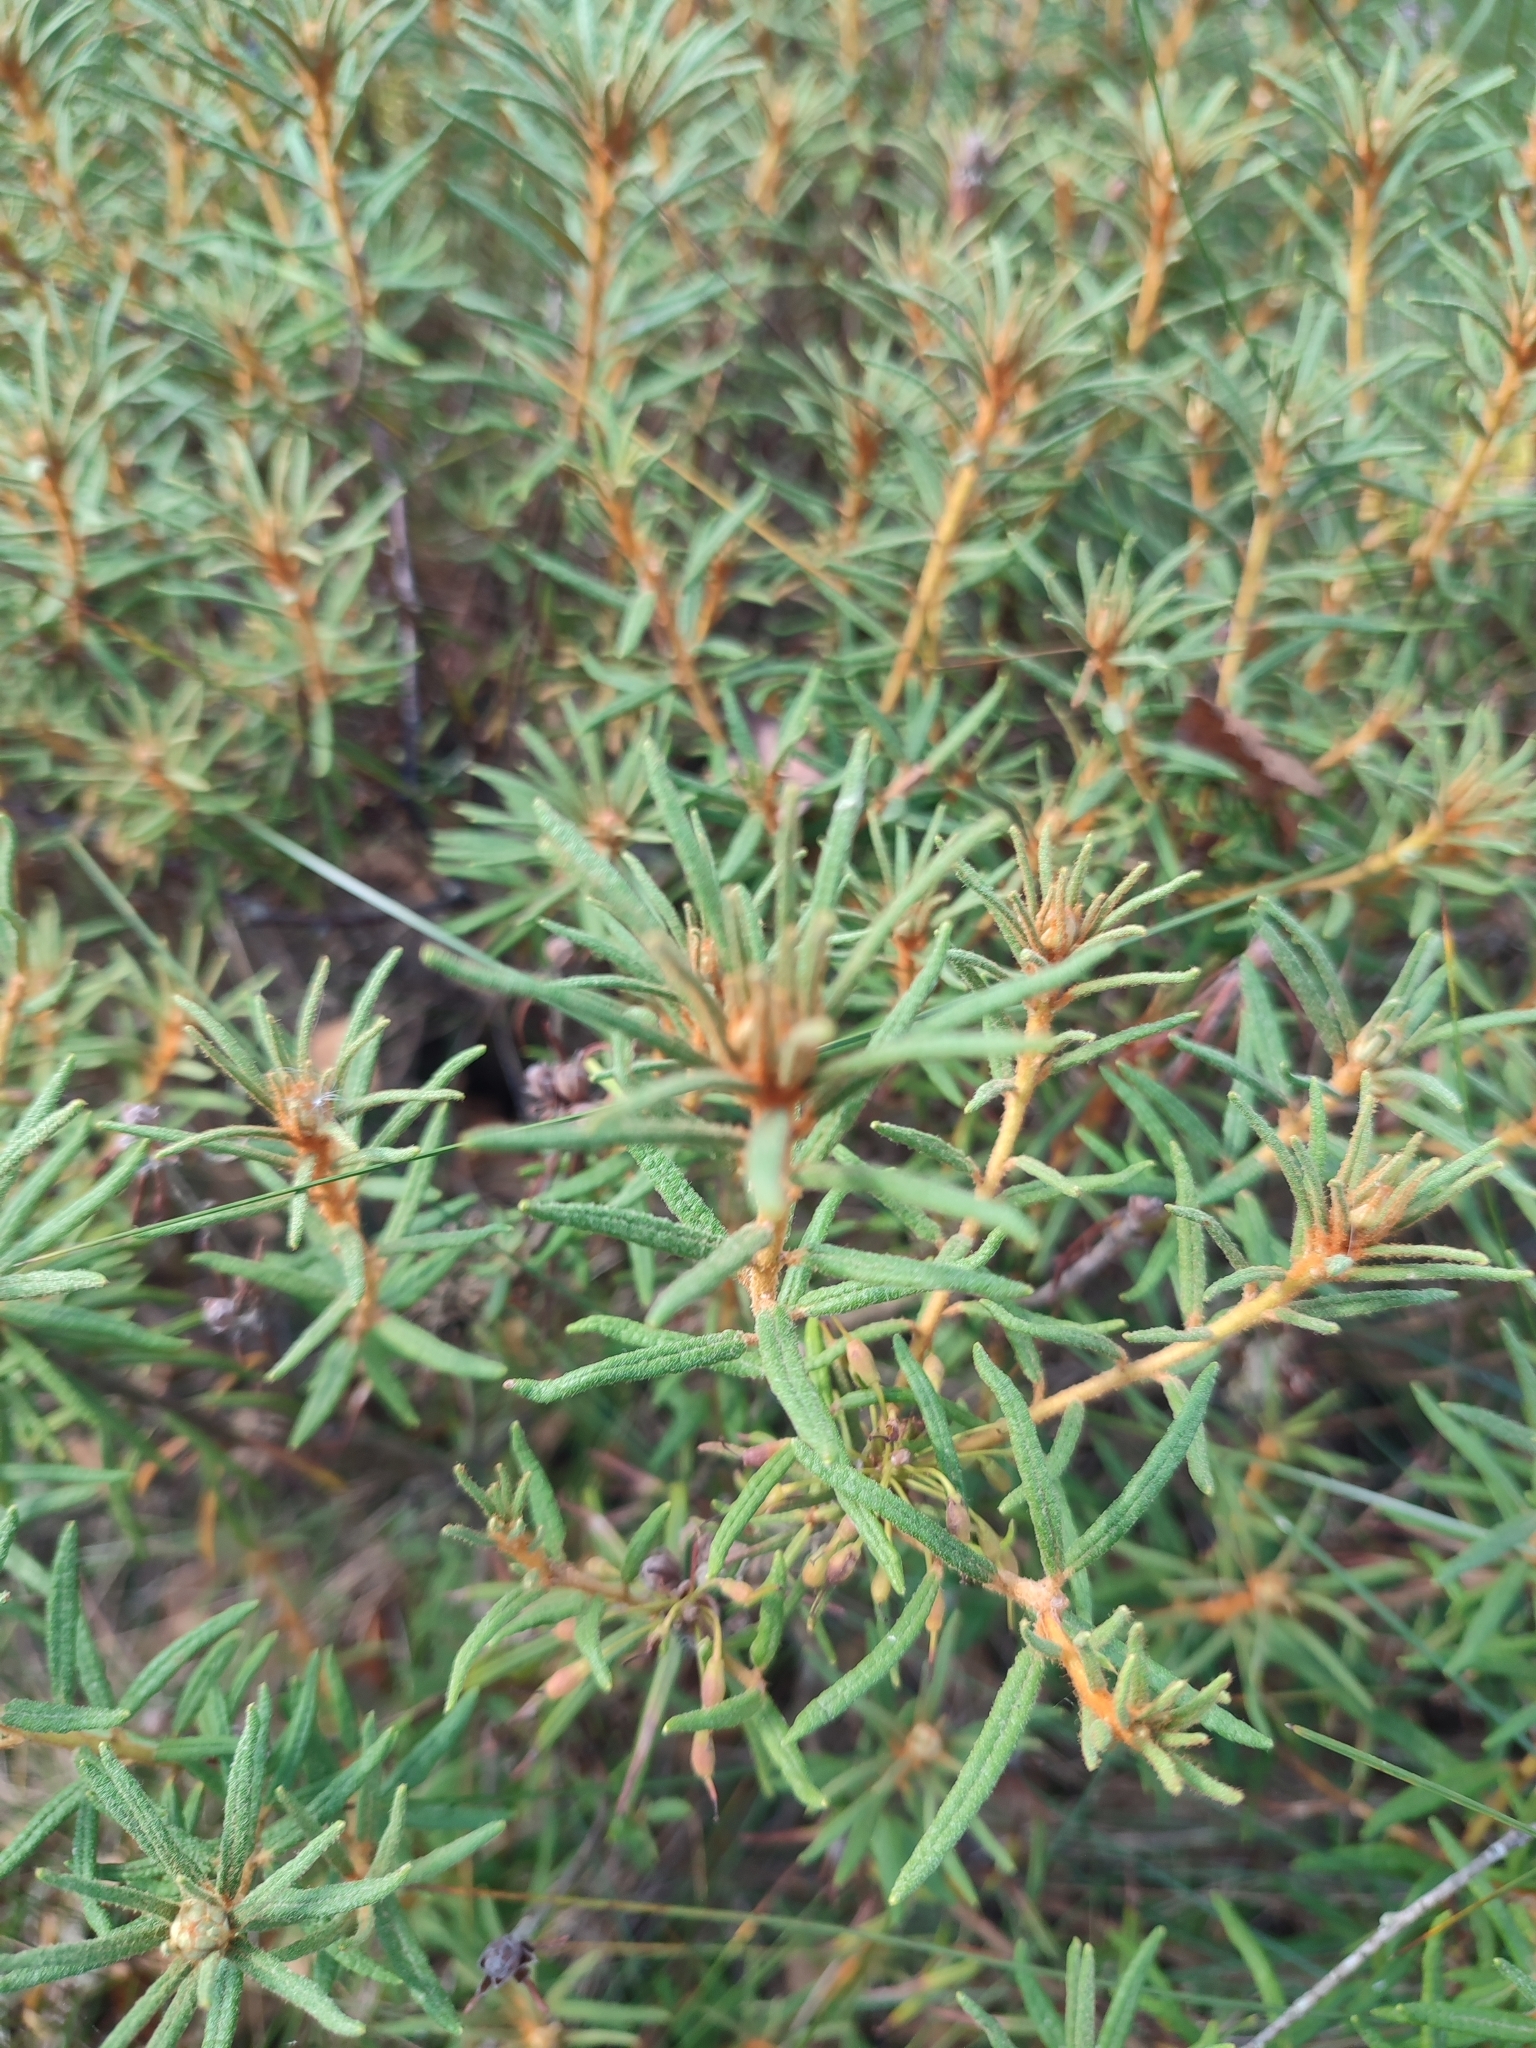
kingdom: Plantae
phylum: Tracheophyta
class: Magnoliopsida
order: Ericales
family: Ericaceae
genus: Rhododendron
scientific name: Rhododendron tomentosum
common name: Marsh labrador tea
